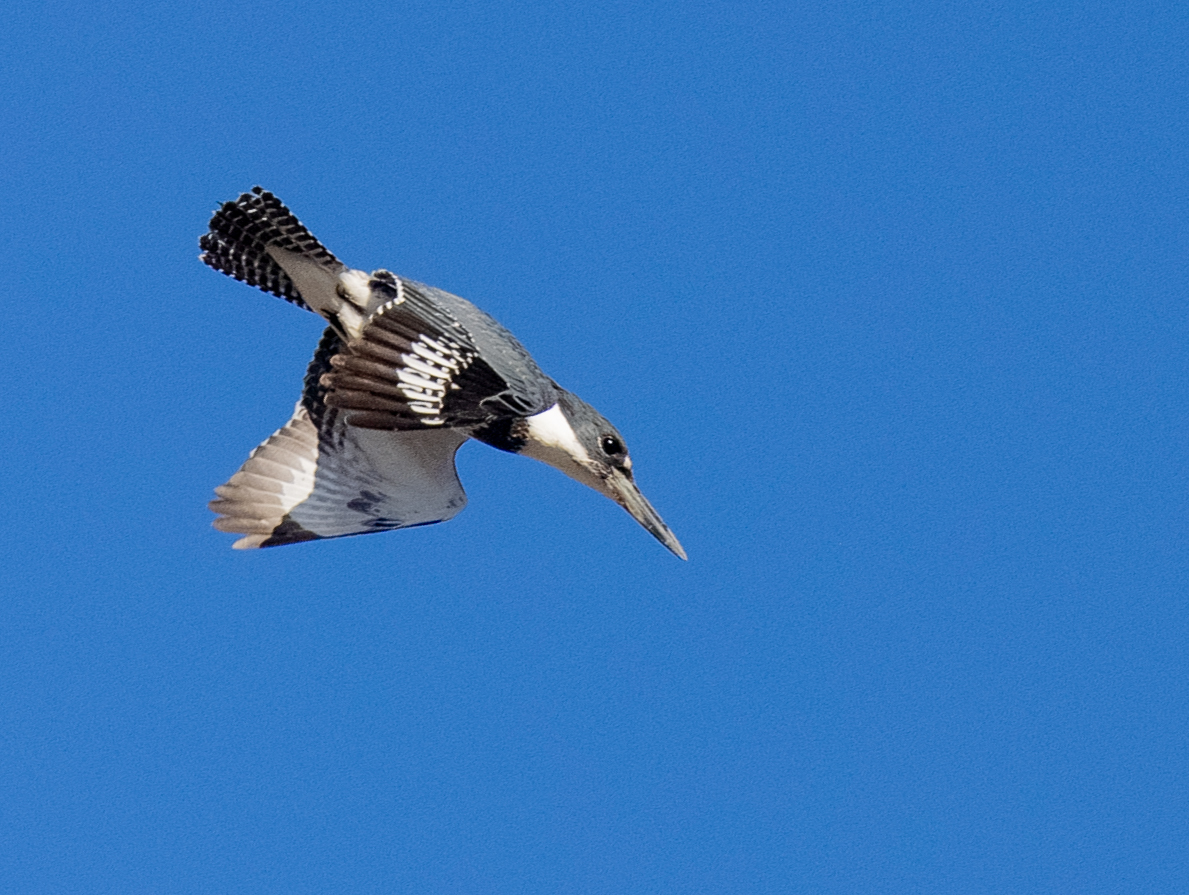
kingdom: Animalia
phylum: Chordata
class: Aves
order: Coraciiformes
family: Alcedinidae
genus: Megaceryle
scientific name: Megaceryle alcyon
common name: Belted kingfisher
